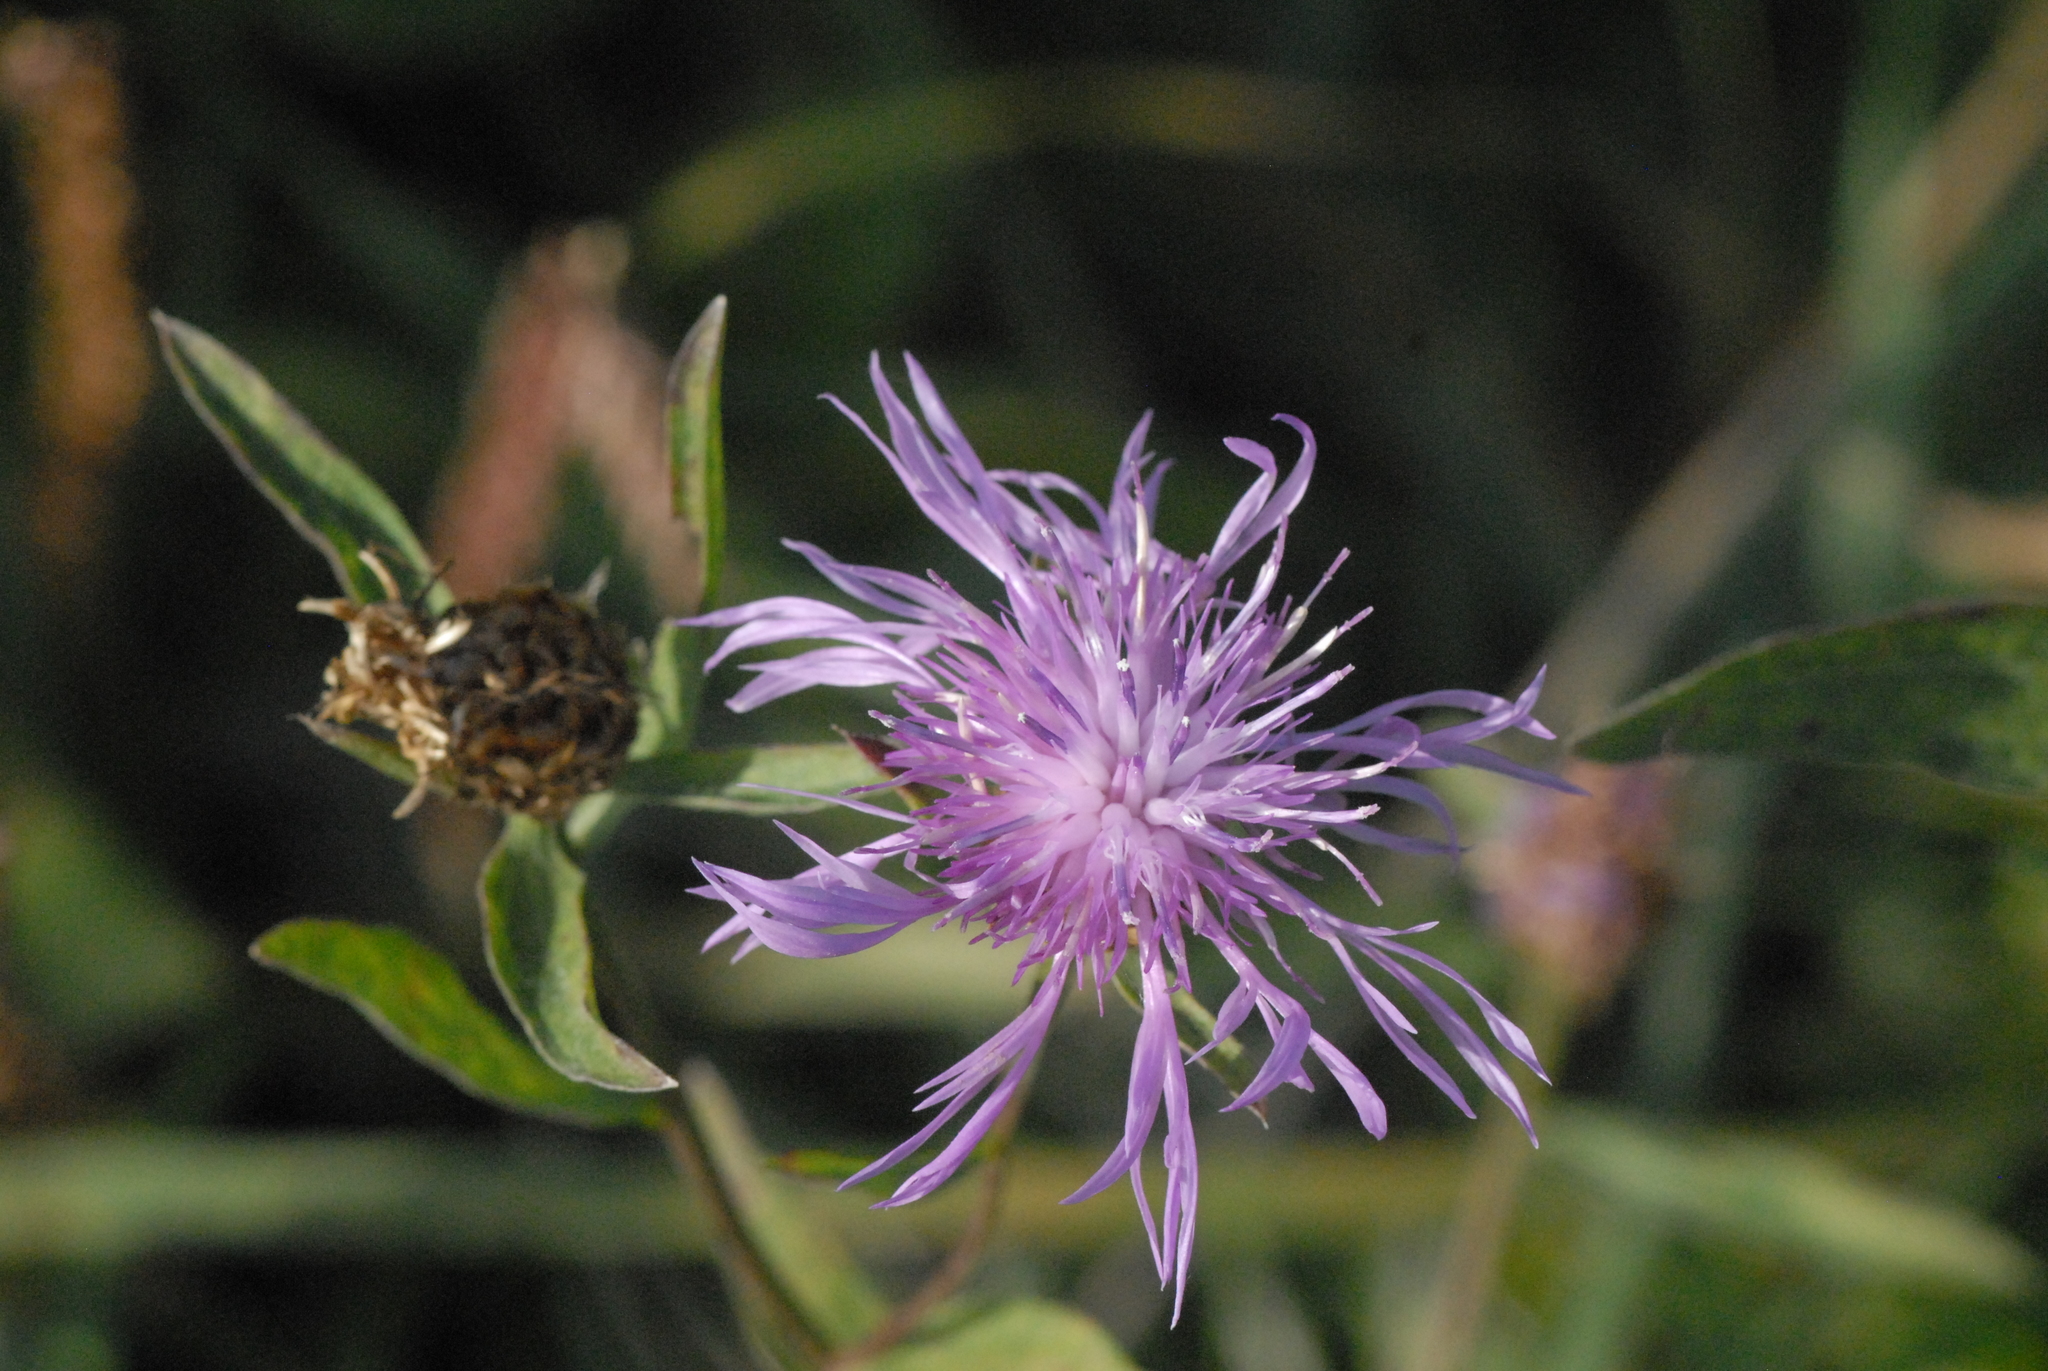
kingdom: Plantae
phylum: Tracheophyta
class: Magnoliopsida
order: Asterales
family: Asteraceae
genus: Centaurea
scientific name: Centaurea jacea
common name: Brown knapweed
